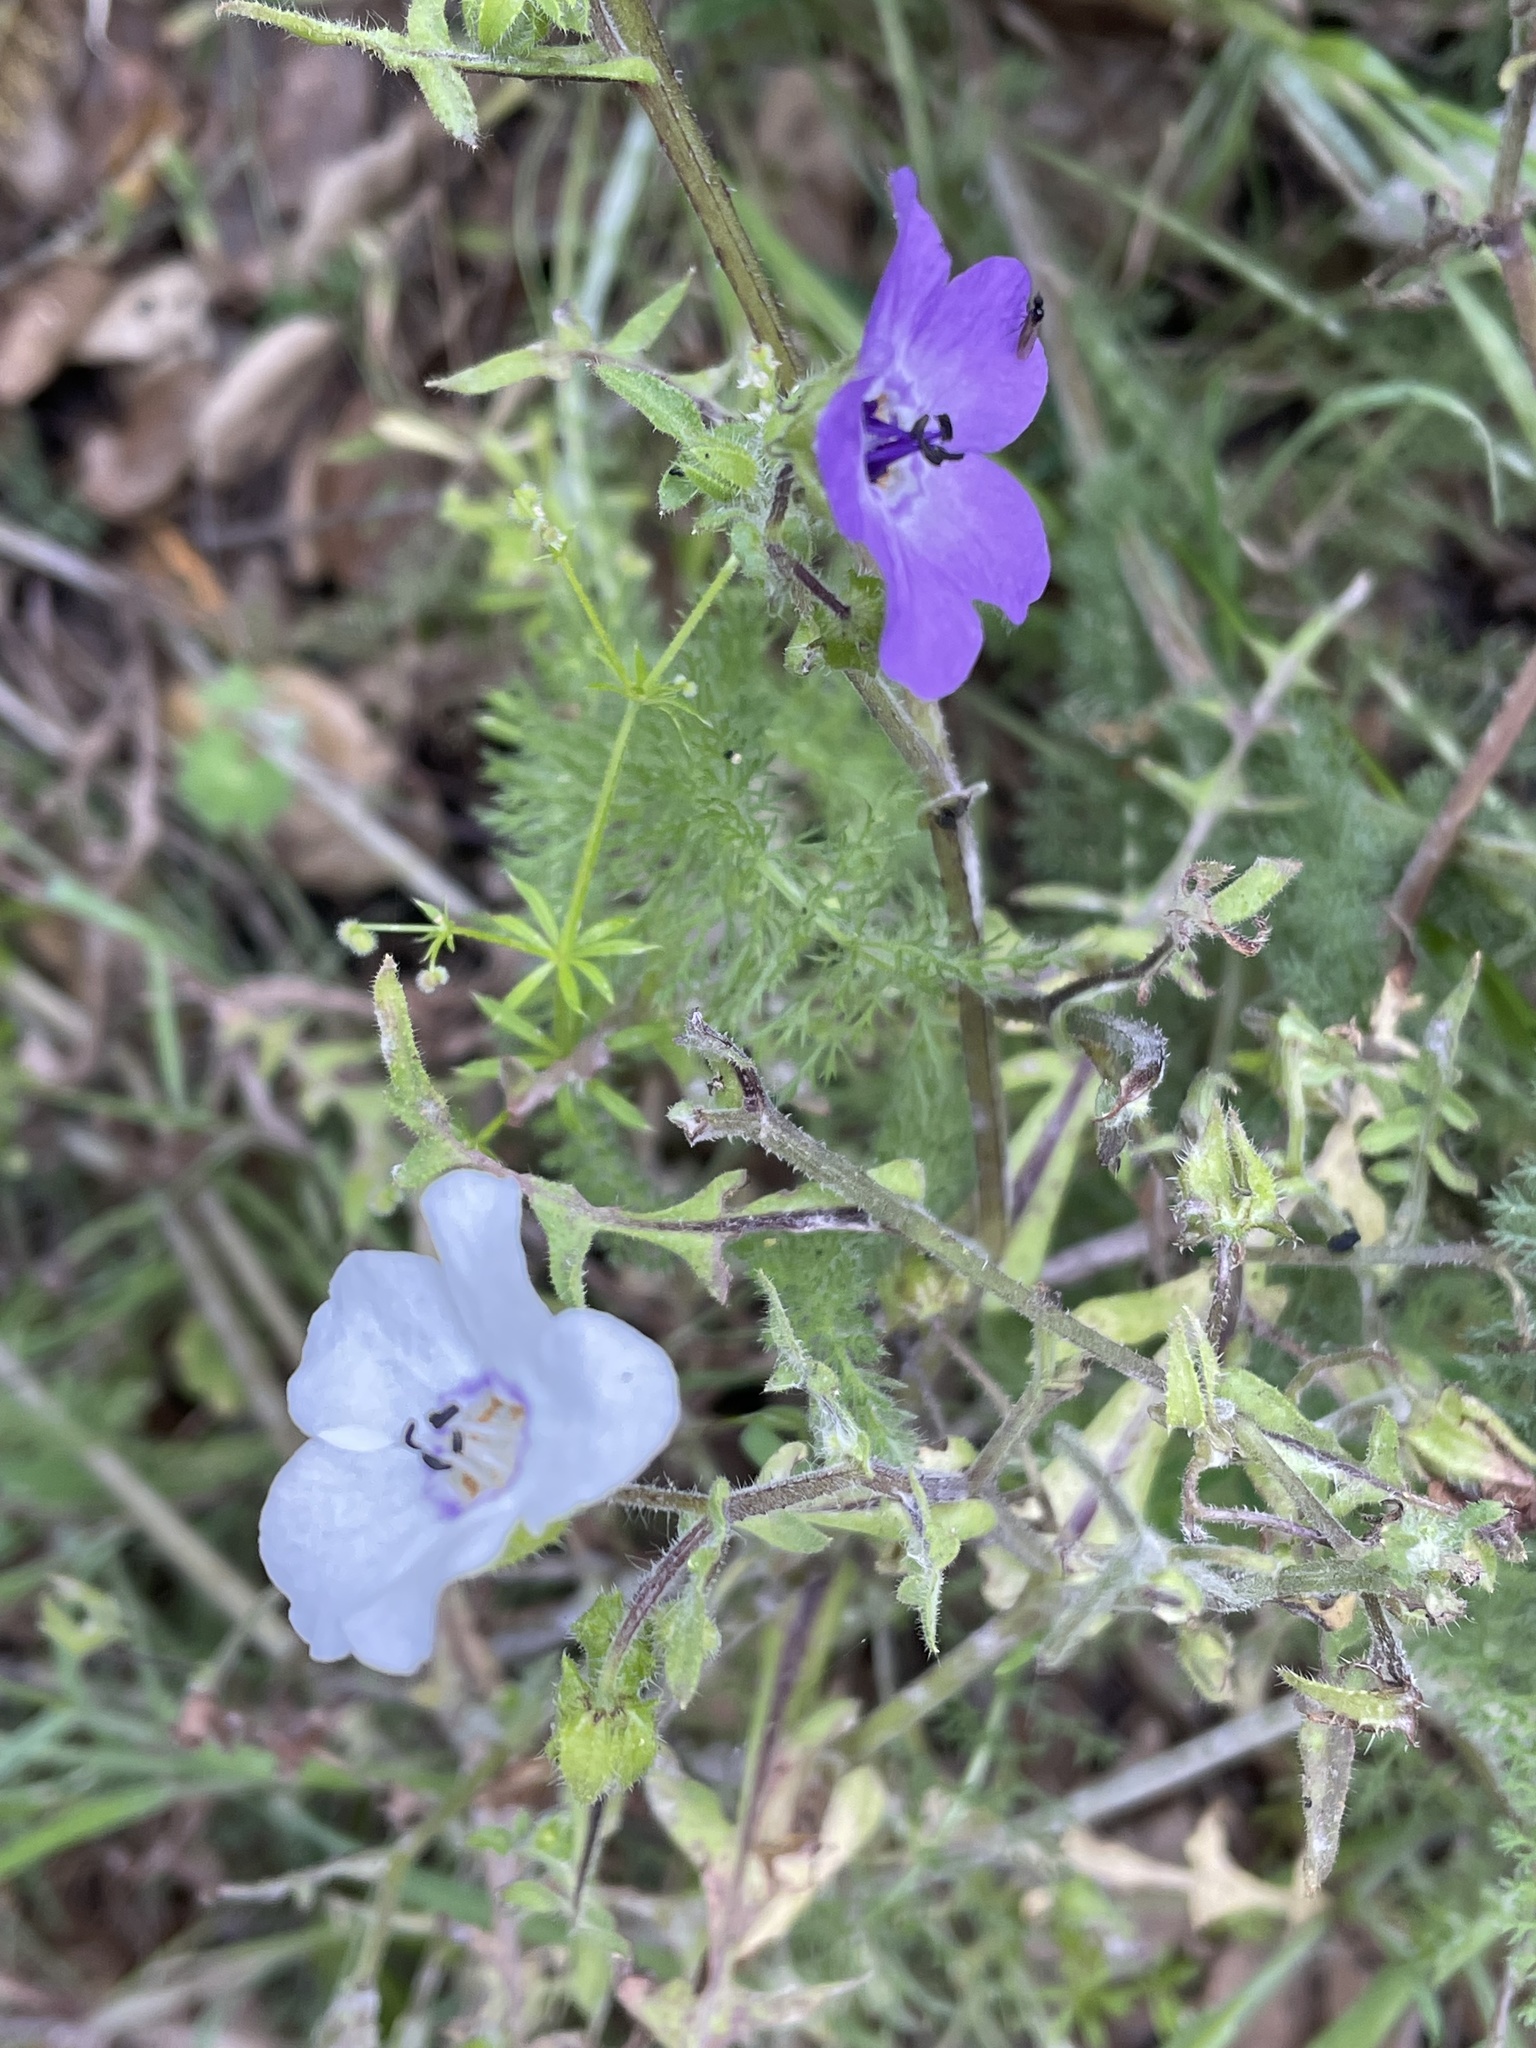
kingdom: Plantae
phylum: Tracheophyta
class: Magnoliopsida
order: Boraginales
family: Hydrophyllaceae
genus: Pholistoma
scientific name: Pholistoma auritum
